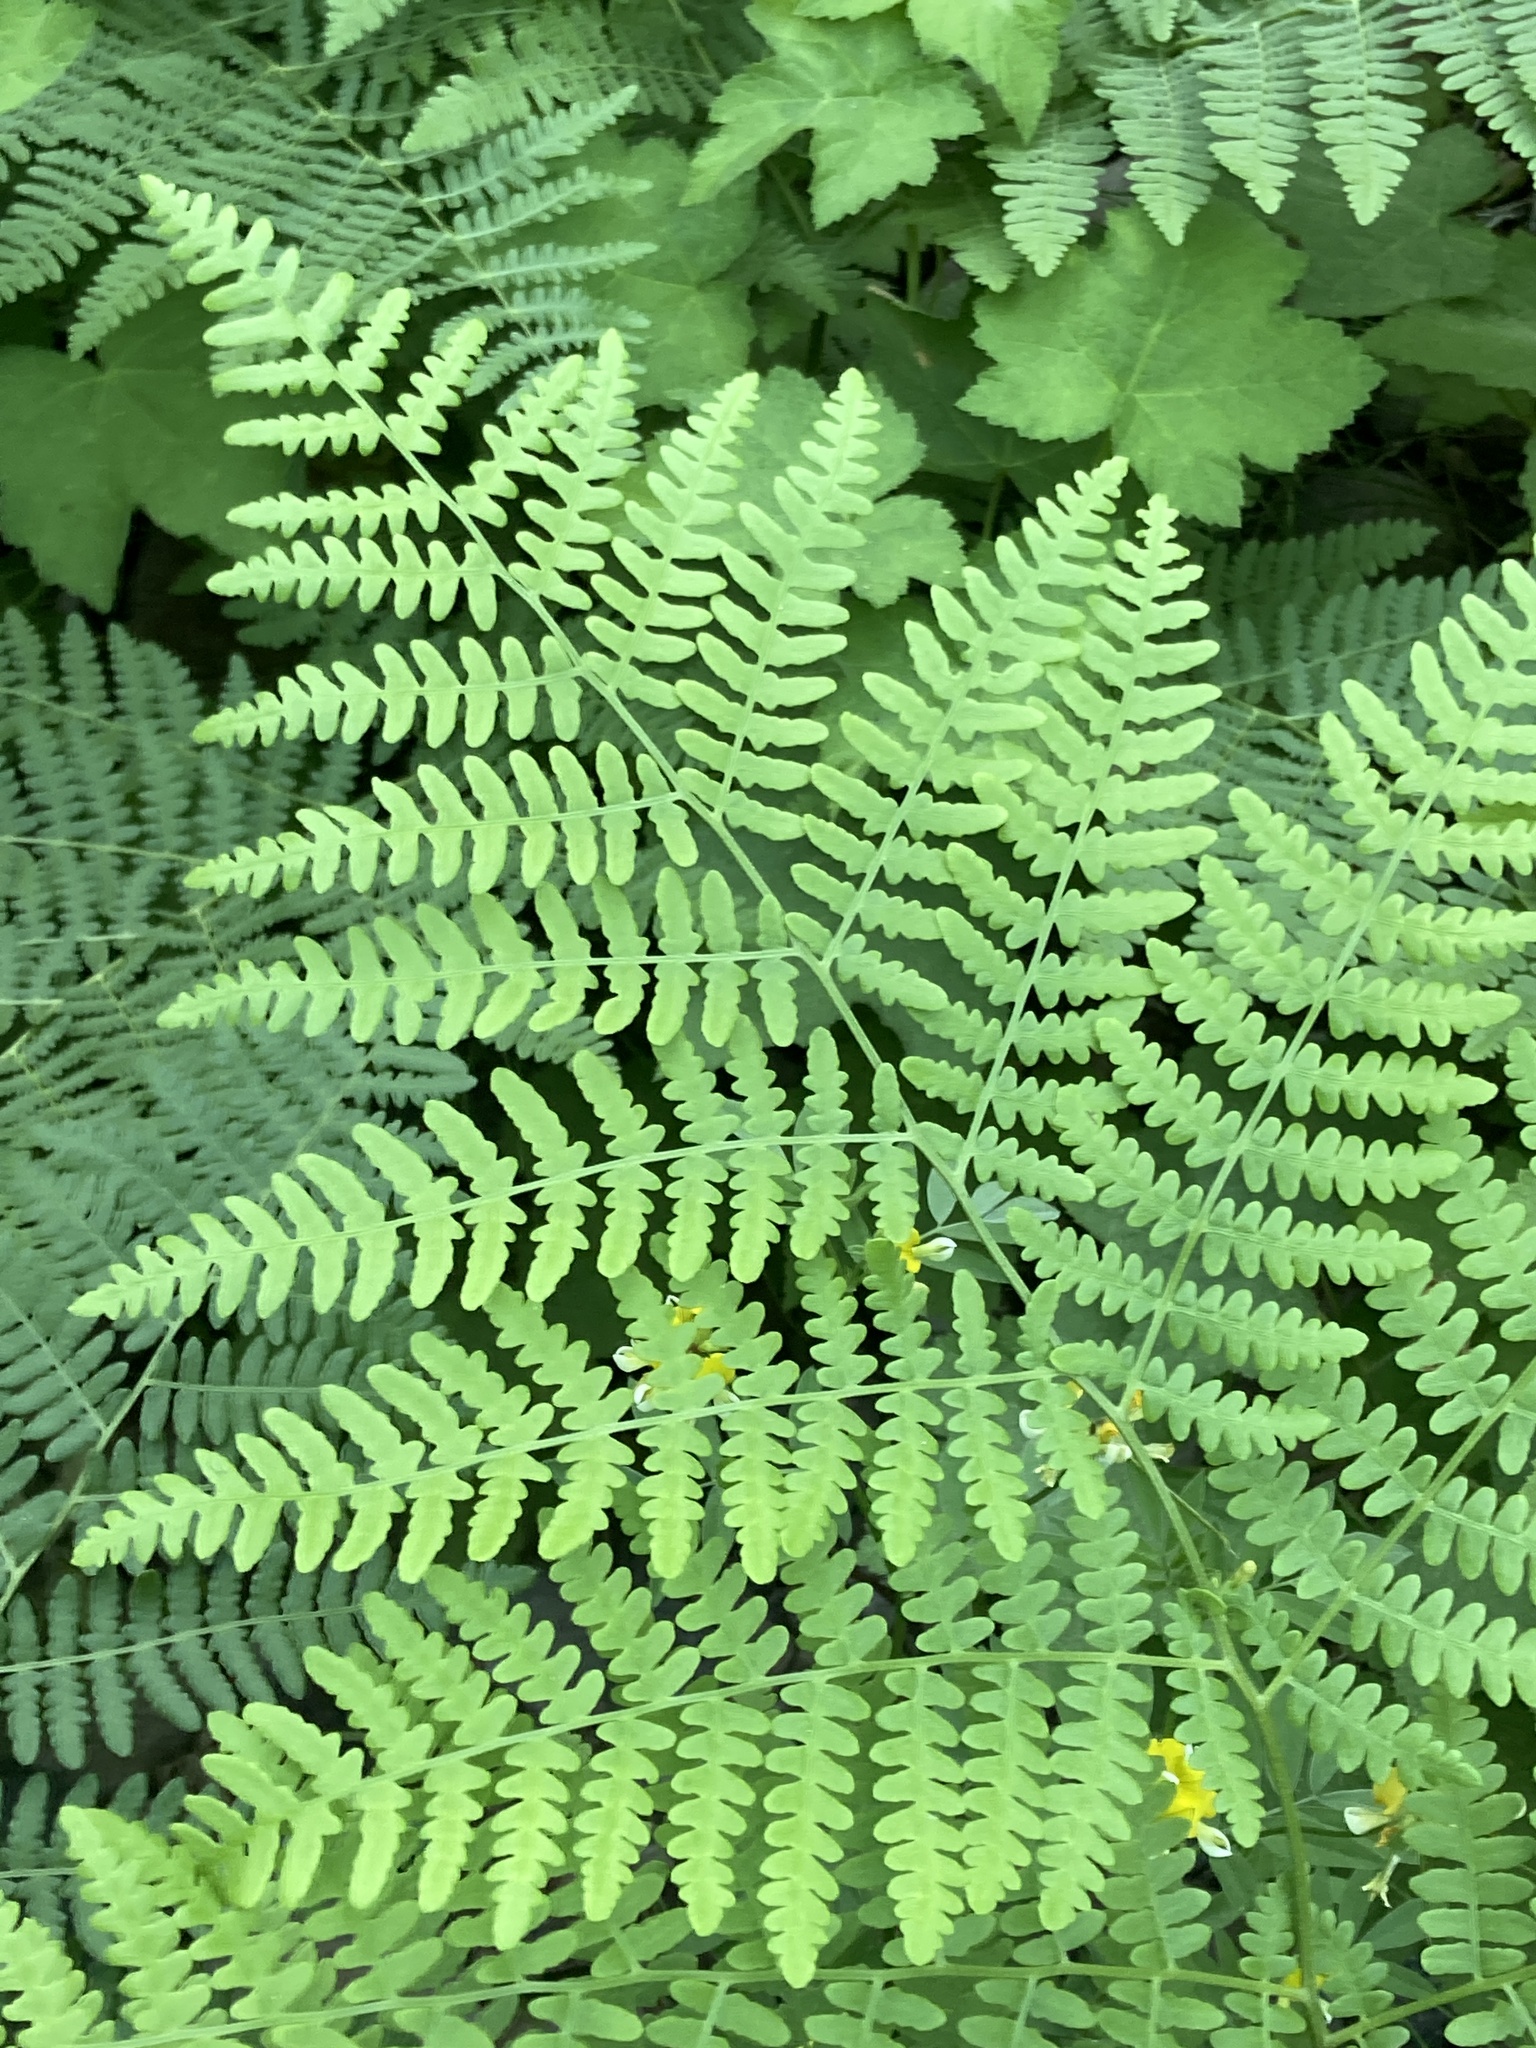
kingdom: Plantae
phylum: Tracheophyta
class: Polypodiopsida
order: Polypodiales
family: Dennstaedtiaceae
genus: Pteridium
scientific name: Pteridium aquilinum
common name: Bracken
